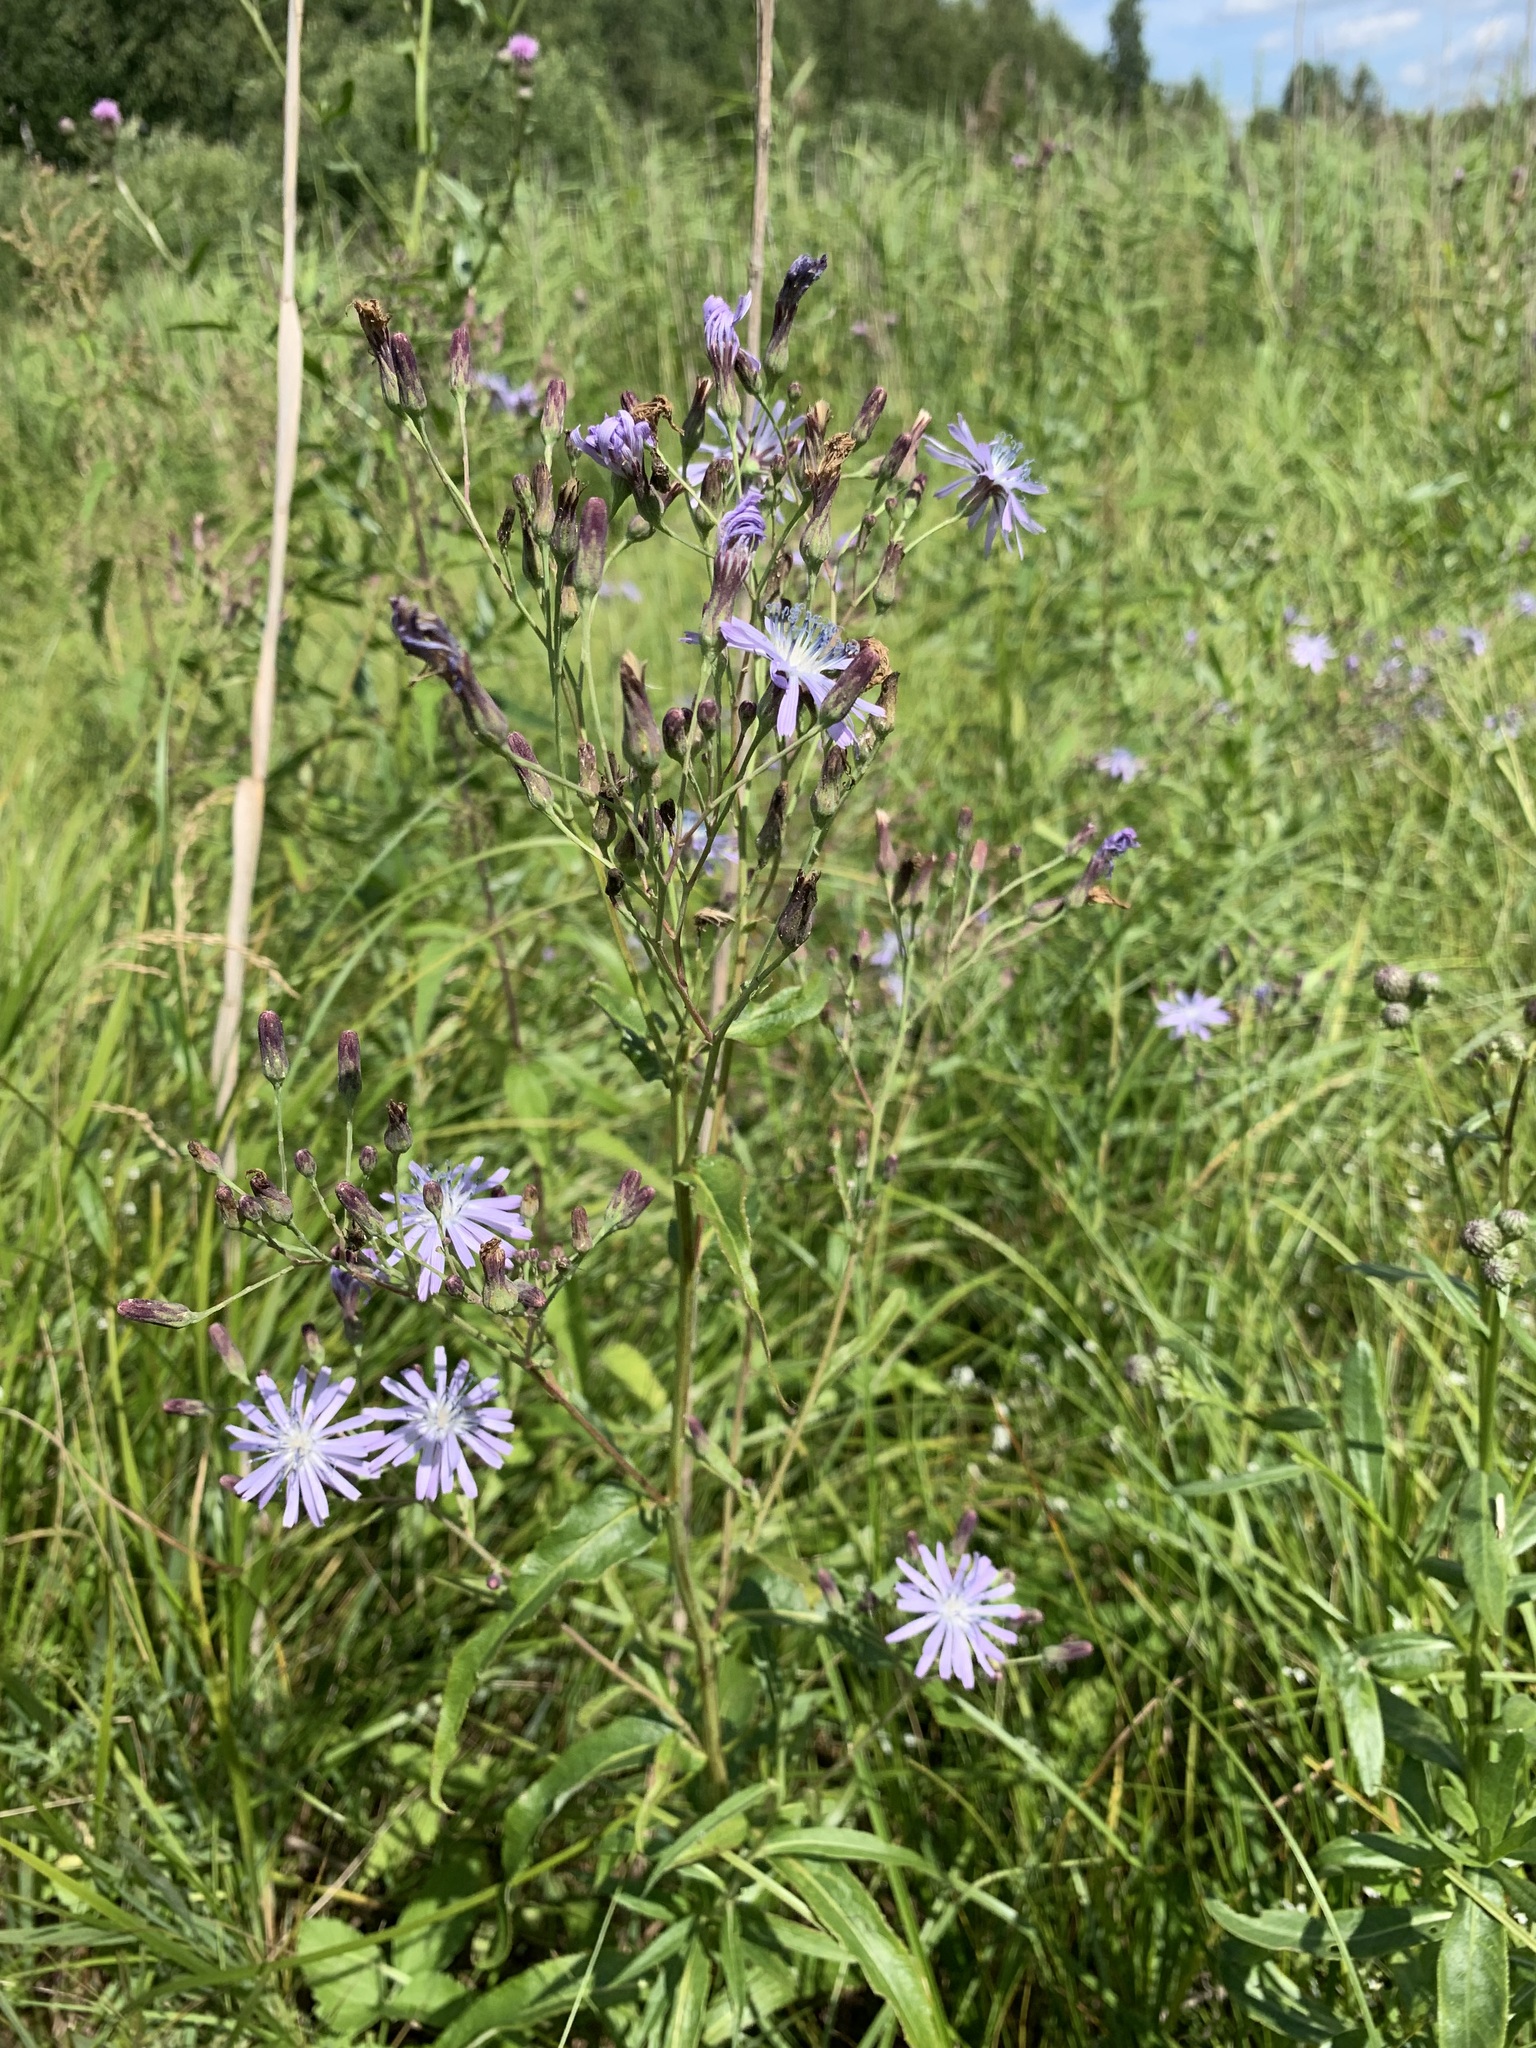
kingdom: Plantae
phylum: Tracheophyta
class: Magnoliopsida
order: Asterales
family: Asteraceae
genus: Lactuca
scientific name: Lactuca sibirica
